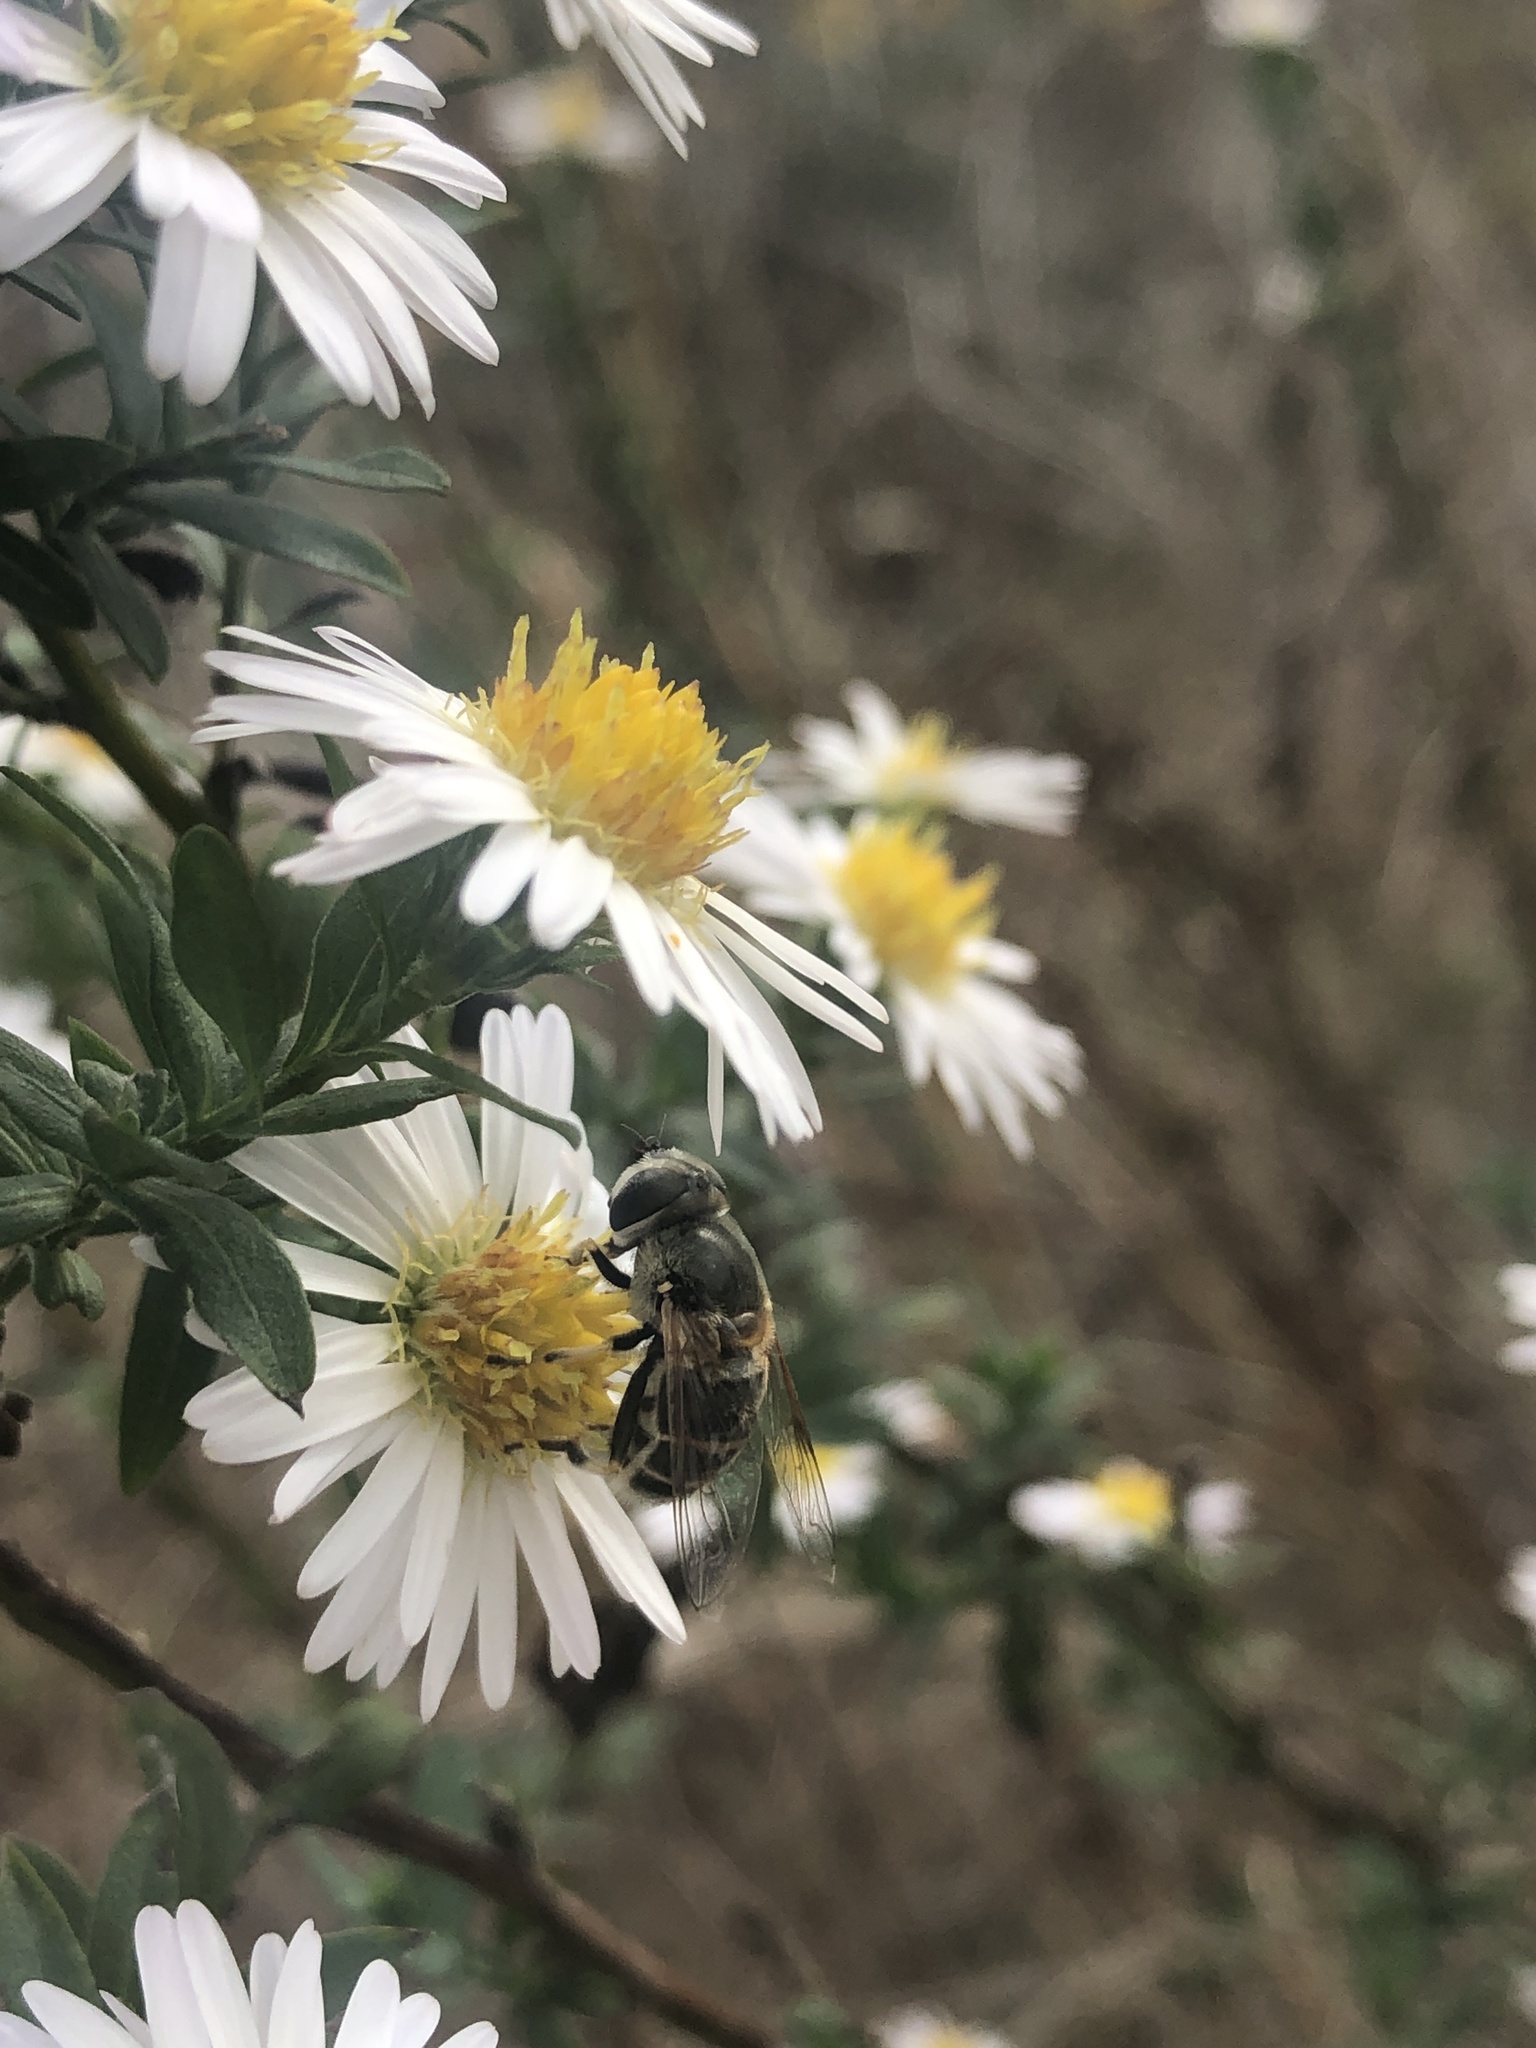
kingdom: Animalia
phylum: Arthropoda
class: Insecta
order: Diptera
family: Syrphidae
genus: Eristalis
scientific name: Eristalis stipator
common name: Yellow-shouldered drone fly
